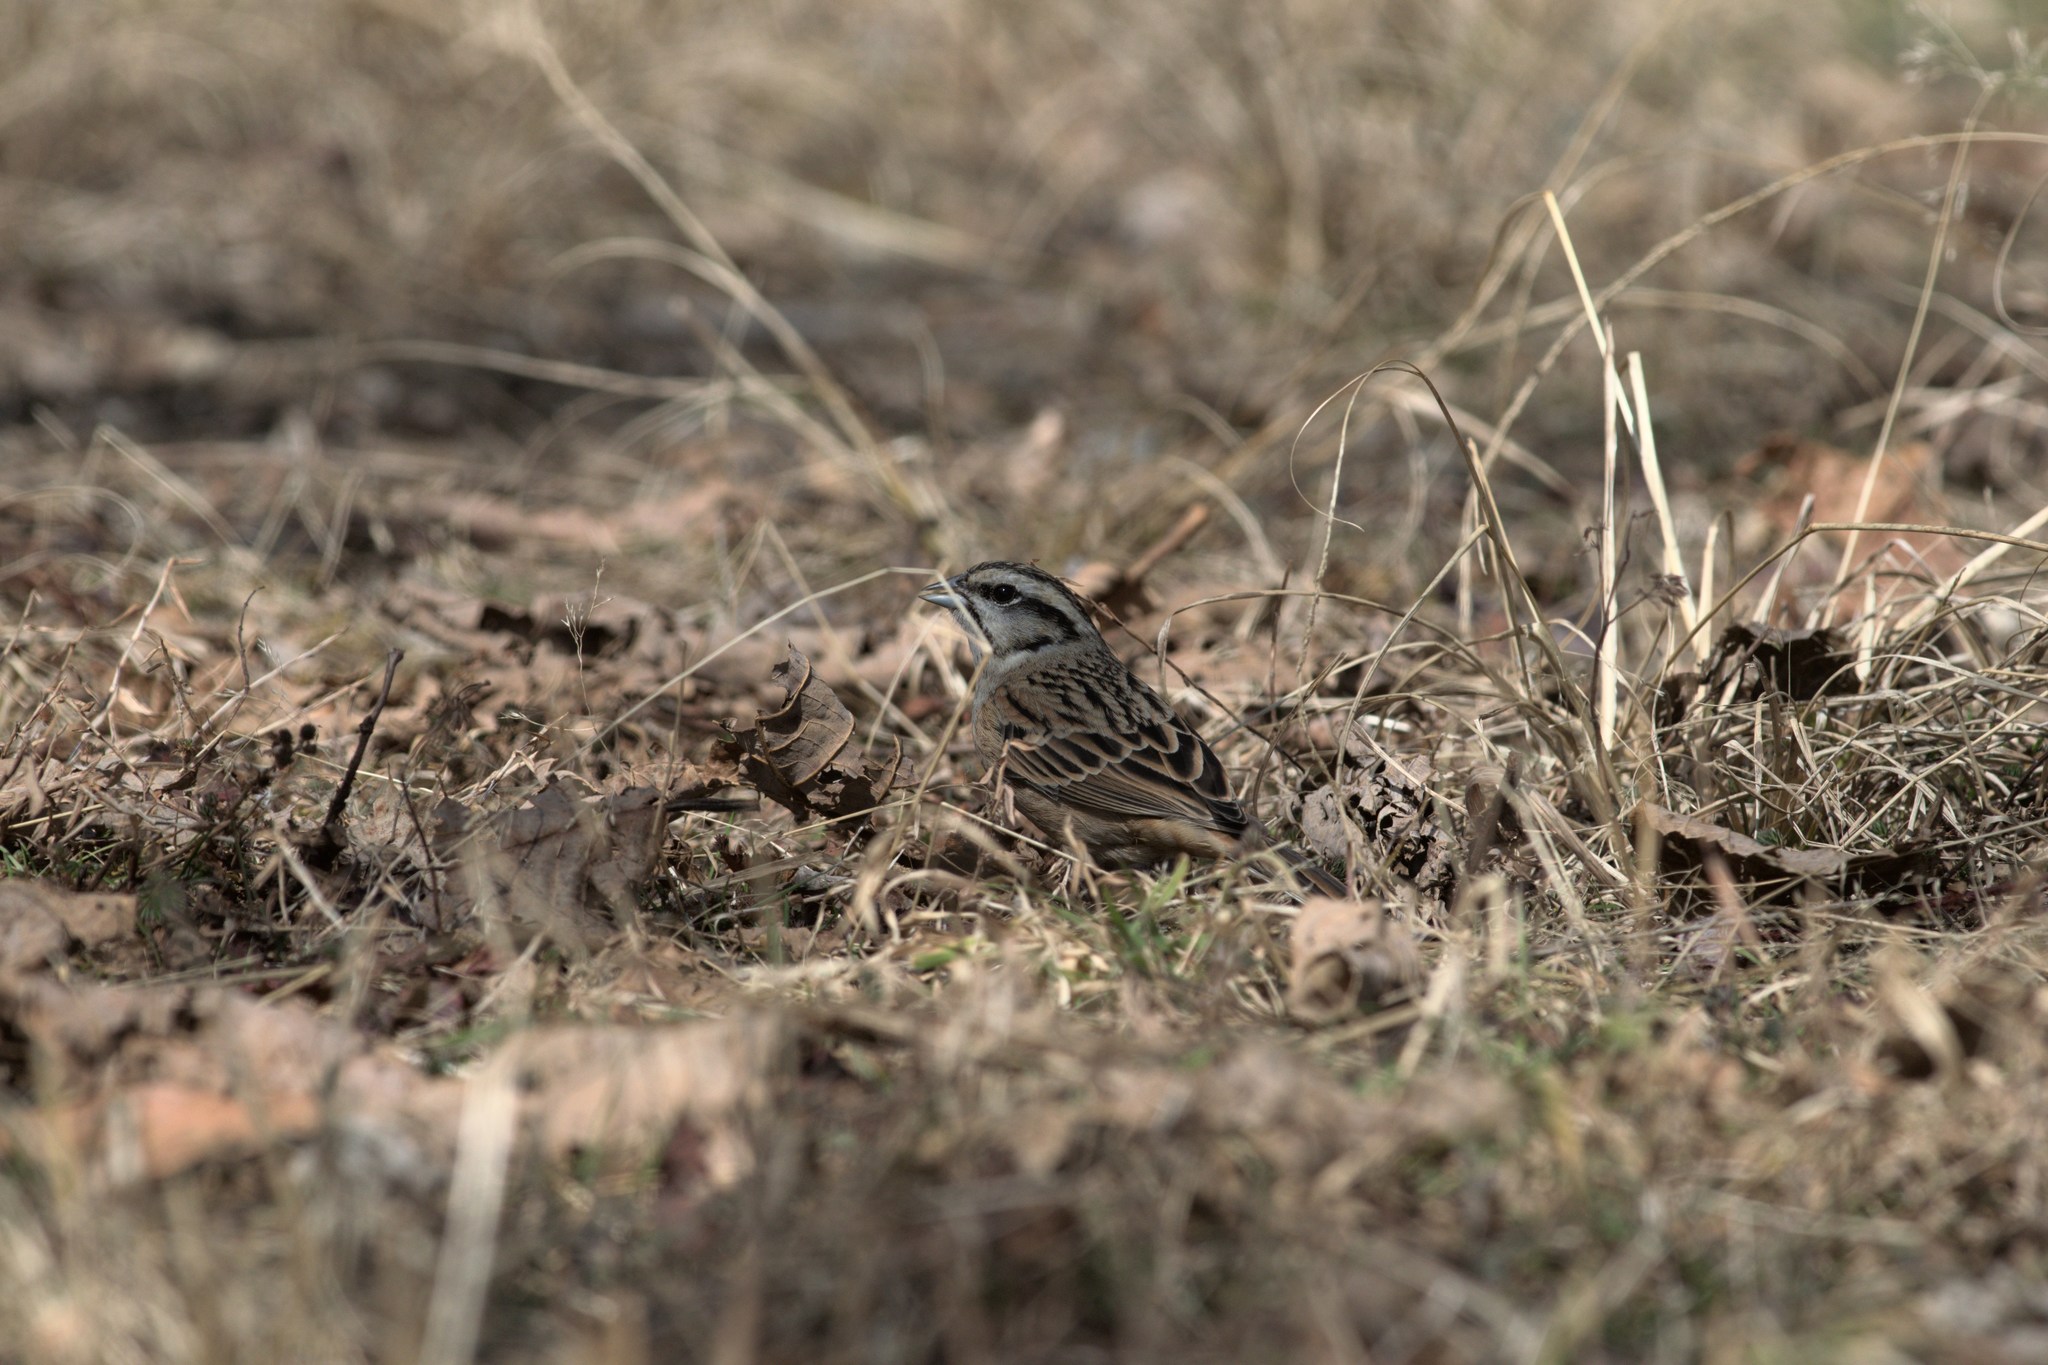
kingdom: Animalia
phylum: Chordata
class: Aves
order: Passeriformes
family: Emberizidae
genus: Emberiza
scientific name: Emberiza cia
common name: Rock bunting
